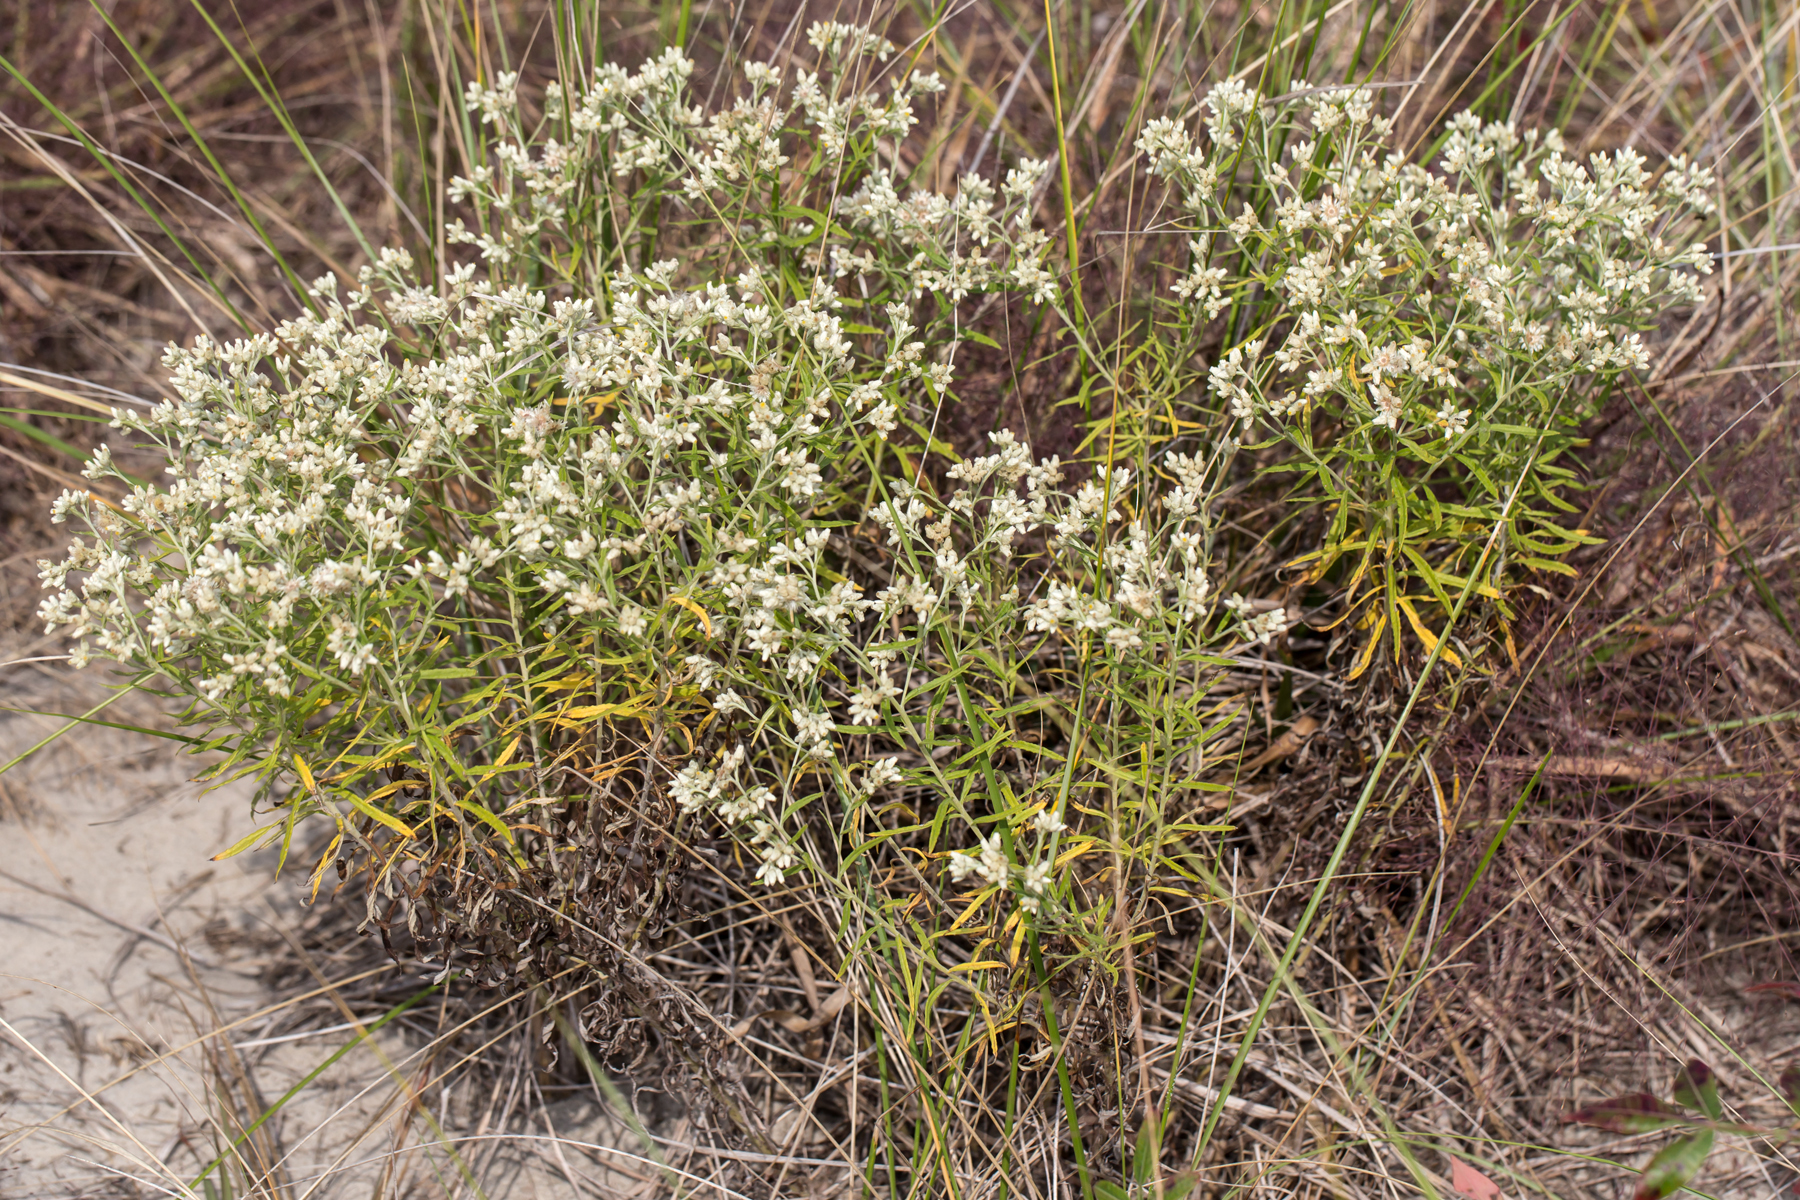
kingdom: Plantae
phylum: Tracheophyta
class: Magnoliopsida
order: Asterales
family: Asteraceae
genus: Pseudognaphalium
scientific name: Pseudognaphalium obtusifolium
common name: Eastern rabbit-tobacco
